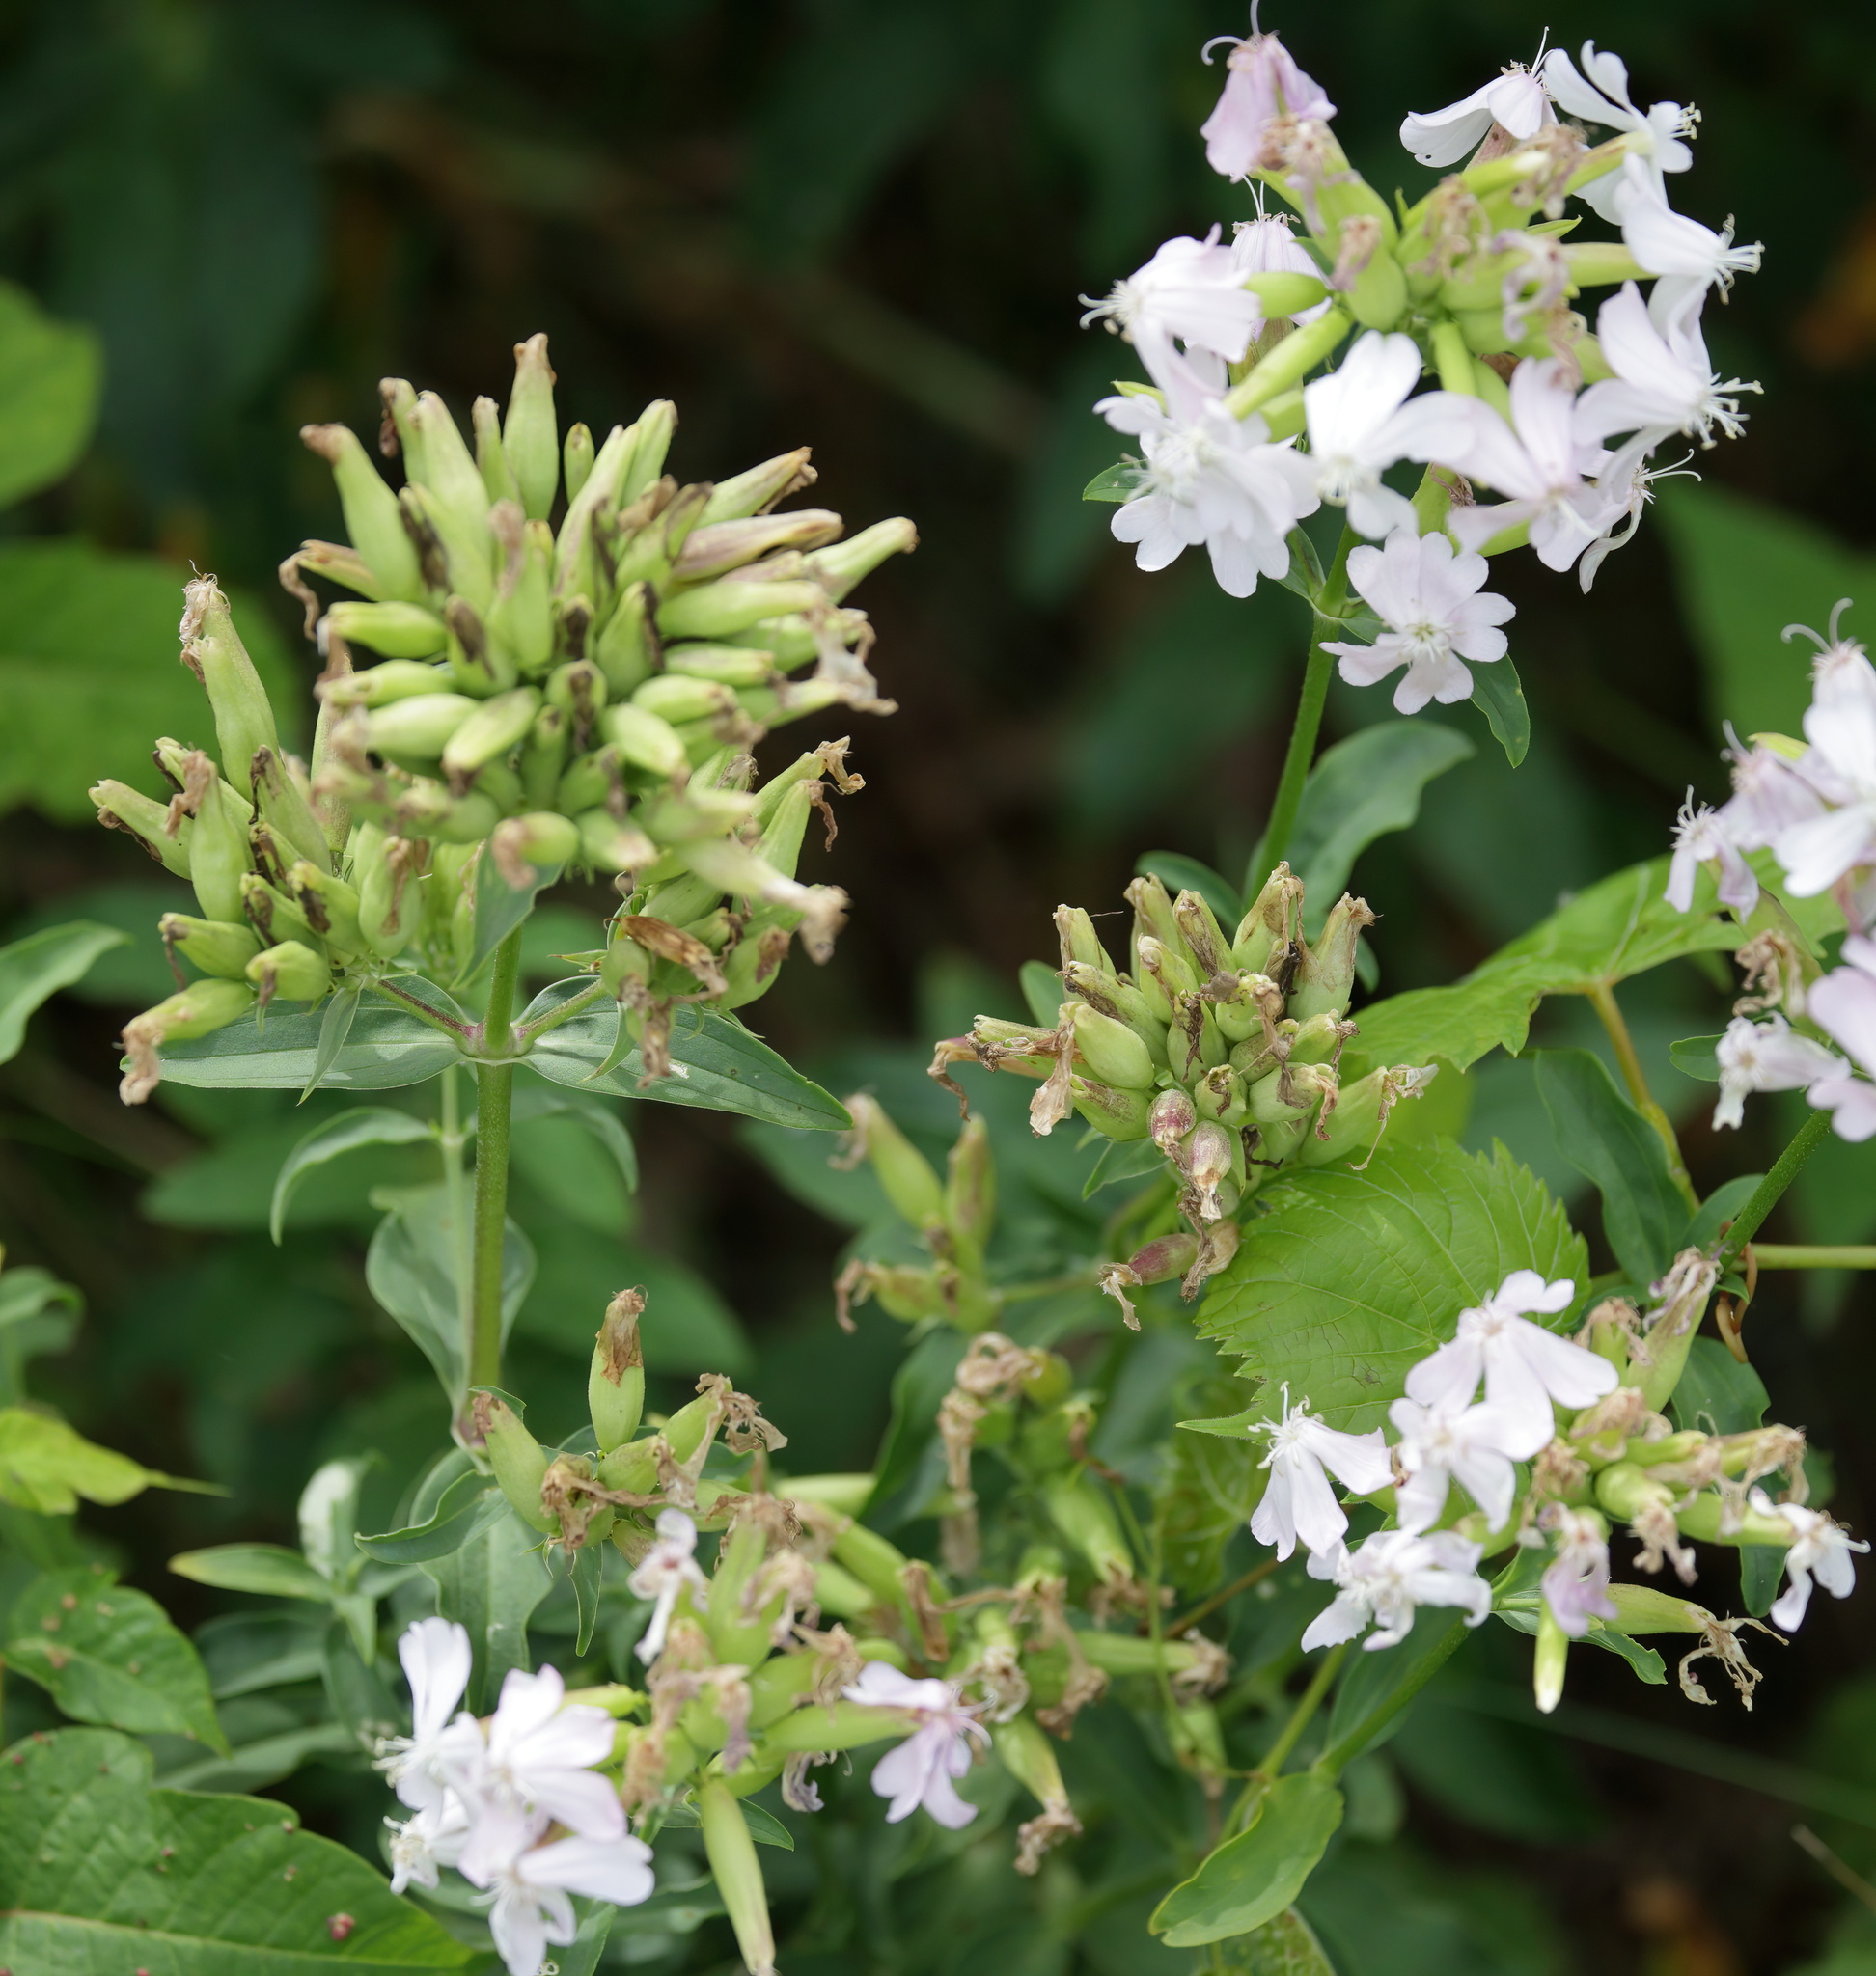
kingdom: Plantae
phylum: Tracheophyta
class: Magnoliopsida
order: Caryophyllales
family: Caryophyllaceae
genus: Saponaria
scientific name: Saponaria officinalis
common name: Soapwort
